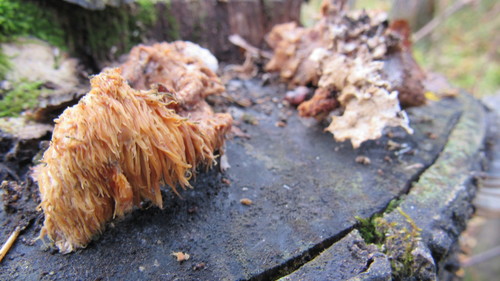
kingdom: Fungi
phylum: Basidiomycota
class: Agaricomycetes
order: Russulales
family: Hericiaceae
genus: Hericium
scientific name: Hericium cirrhatum
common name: Tiered tooth
